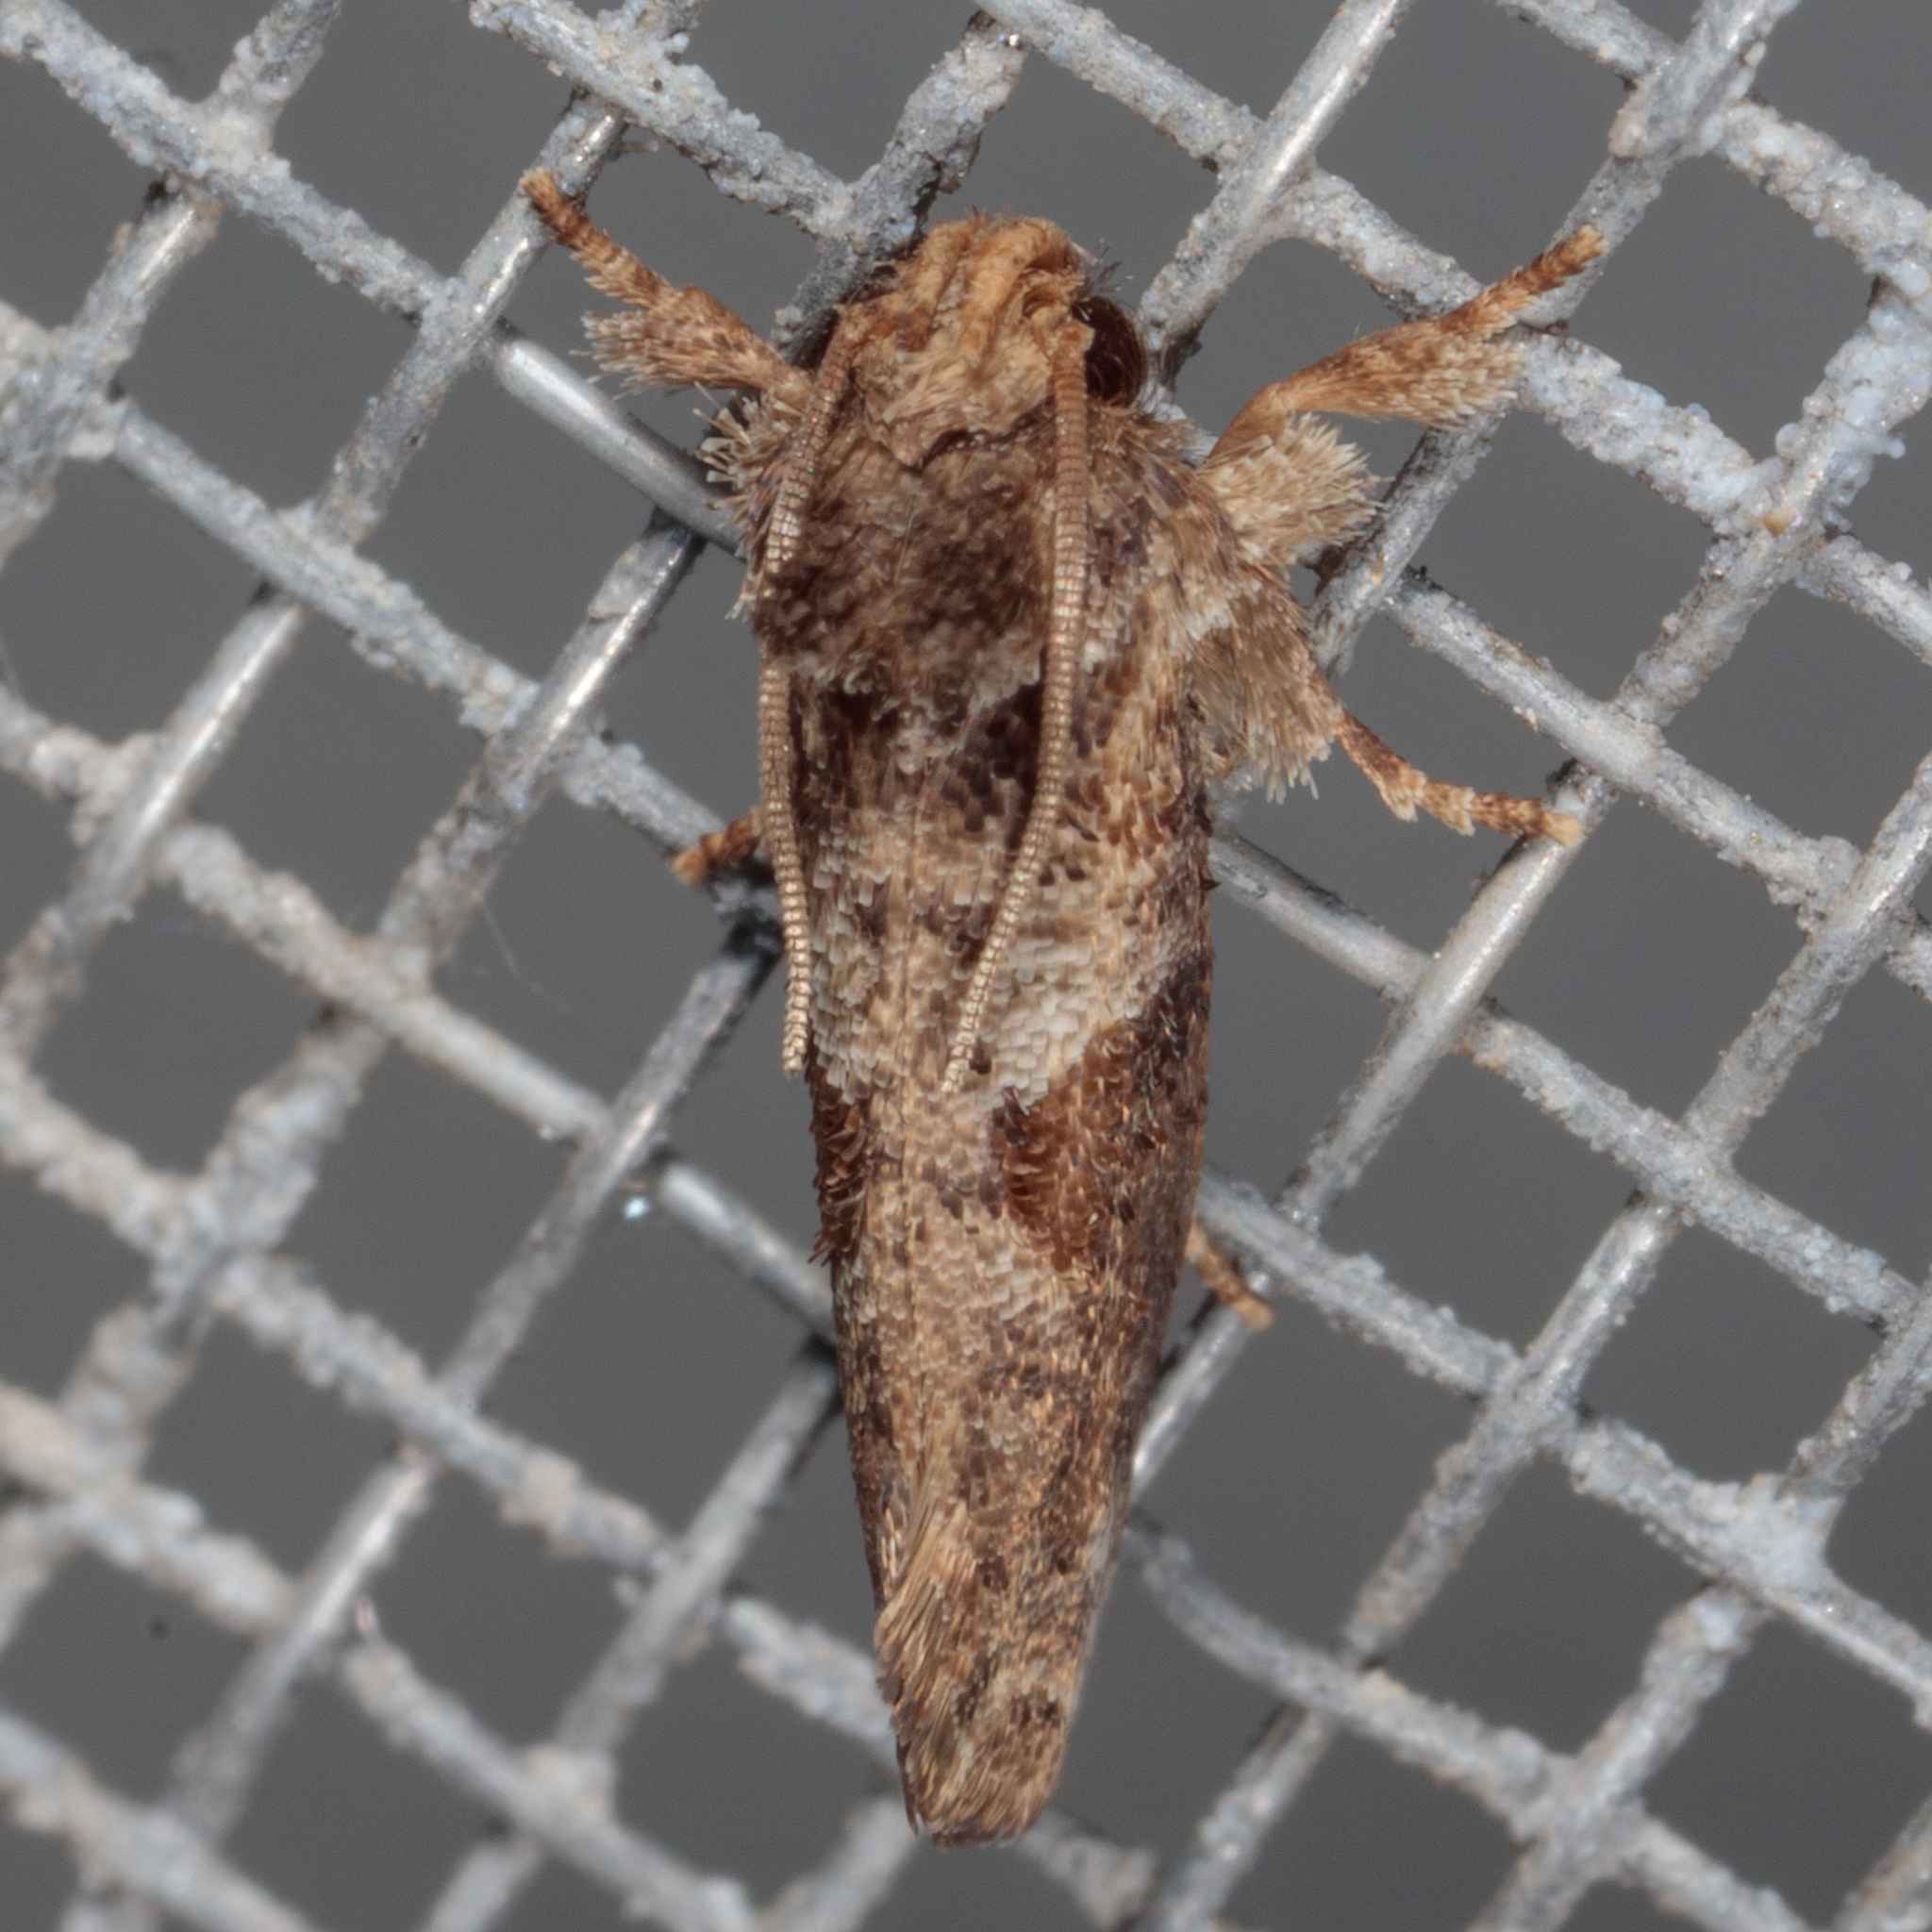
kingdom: Animalia
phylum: Arthropoda
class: Insecta
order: Lepidoptera
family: Tineidae
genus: Acrolophus
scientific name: Acrolophus piger
